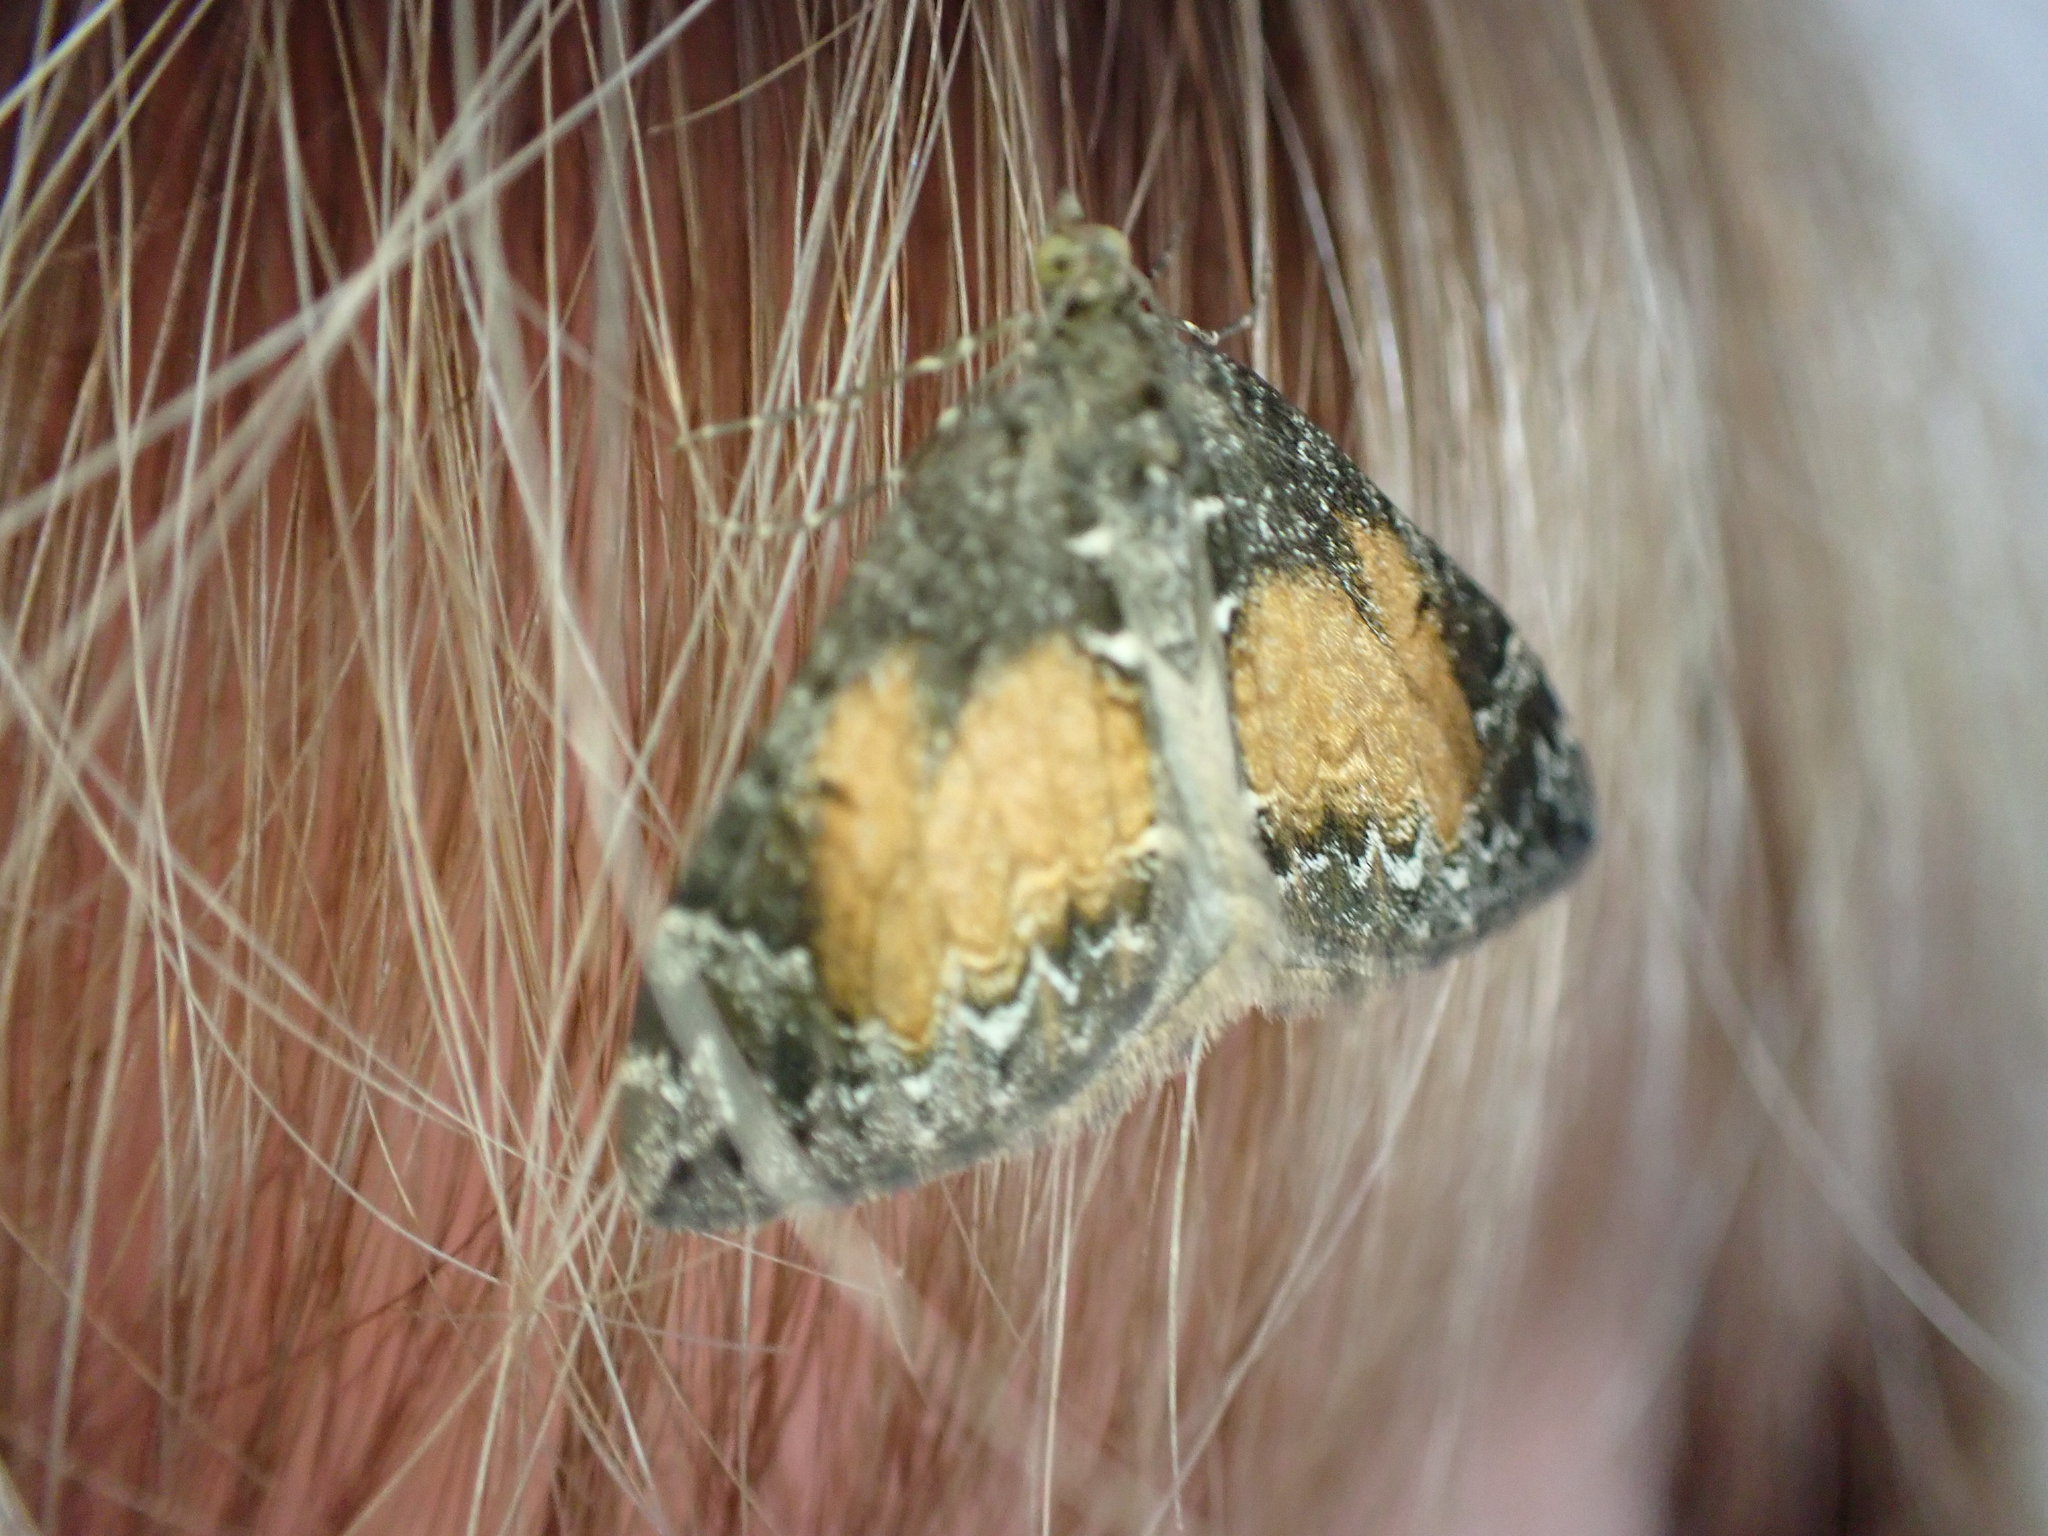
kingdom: Animalia
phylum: Arthropoda
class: Insecta
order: Lepidoptera
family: Geometridae
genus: Dysstroma
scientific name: Dysstroma truncata
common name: Common marbled carpet
